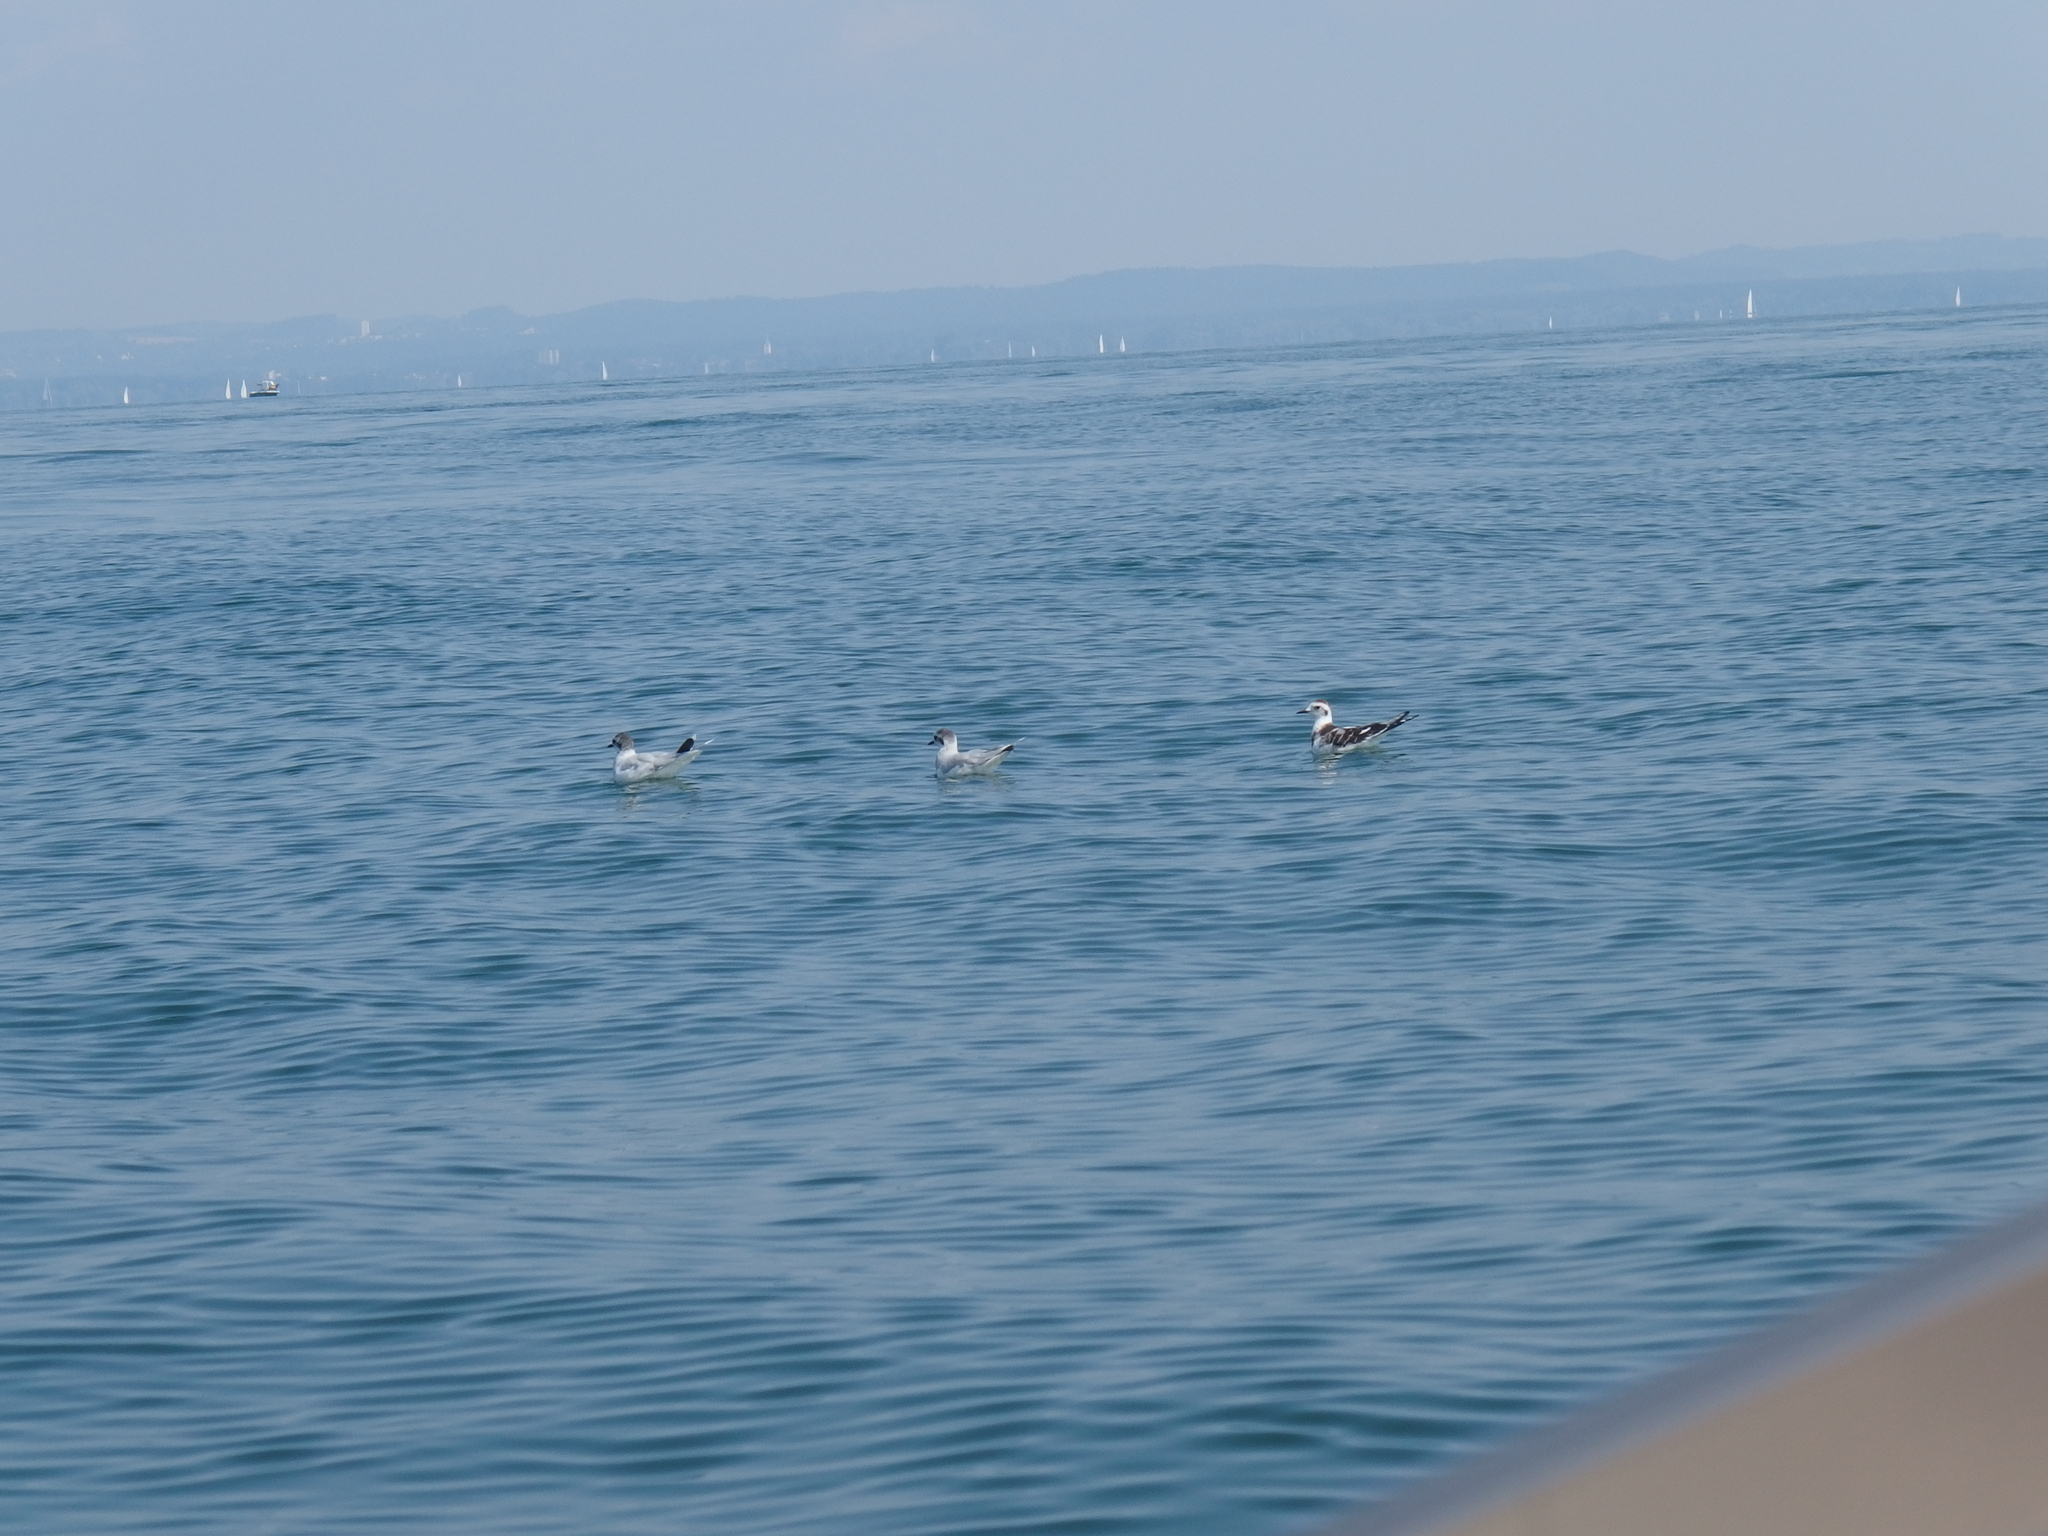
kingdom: Animalia
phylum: Chordata
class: Aves
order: Charadriiformes
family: Laridae
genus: Hydrocoloeus
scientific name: Hydrocoloeus minutus
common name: Little gull
